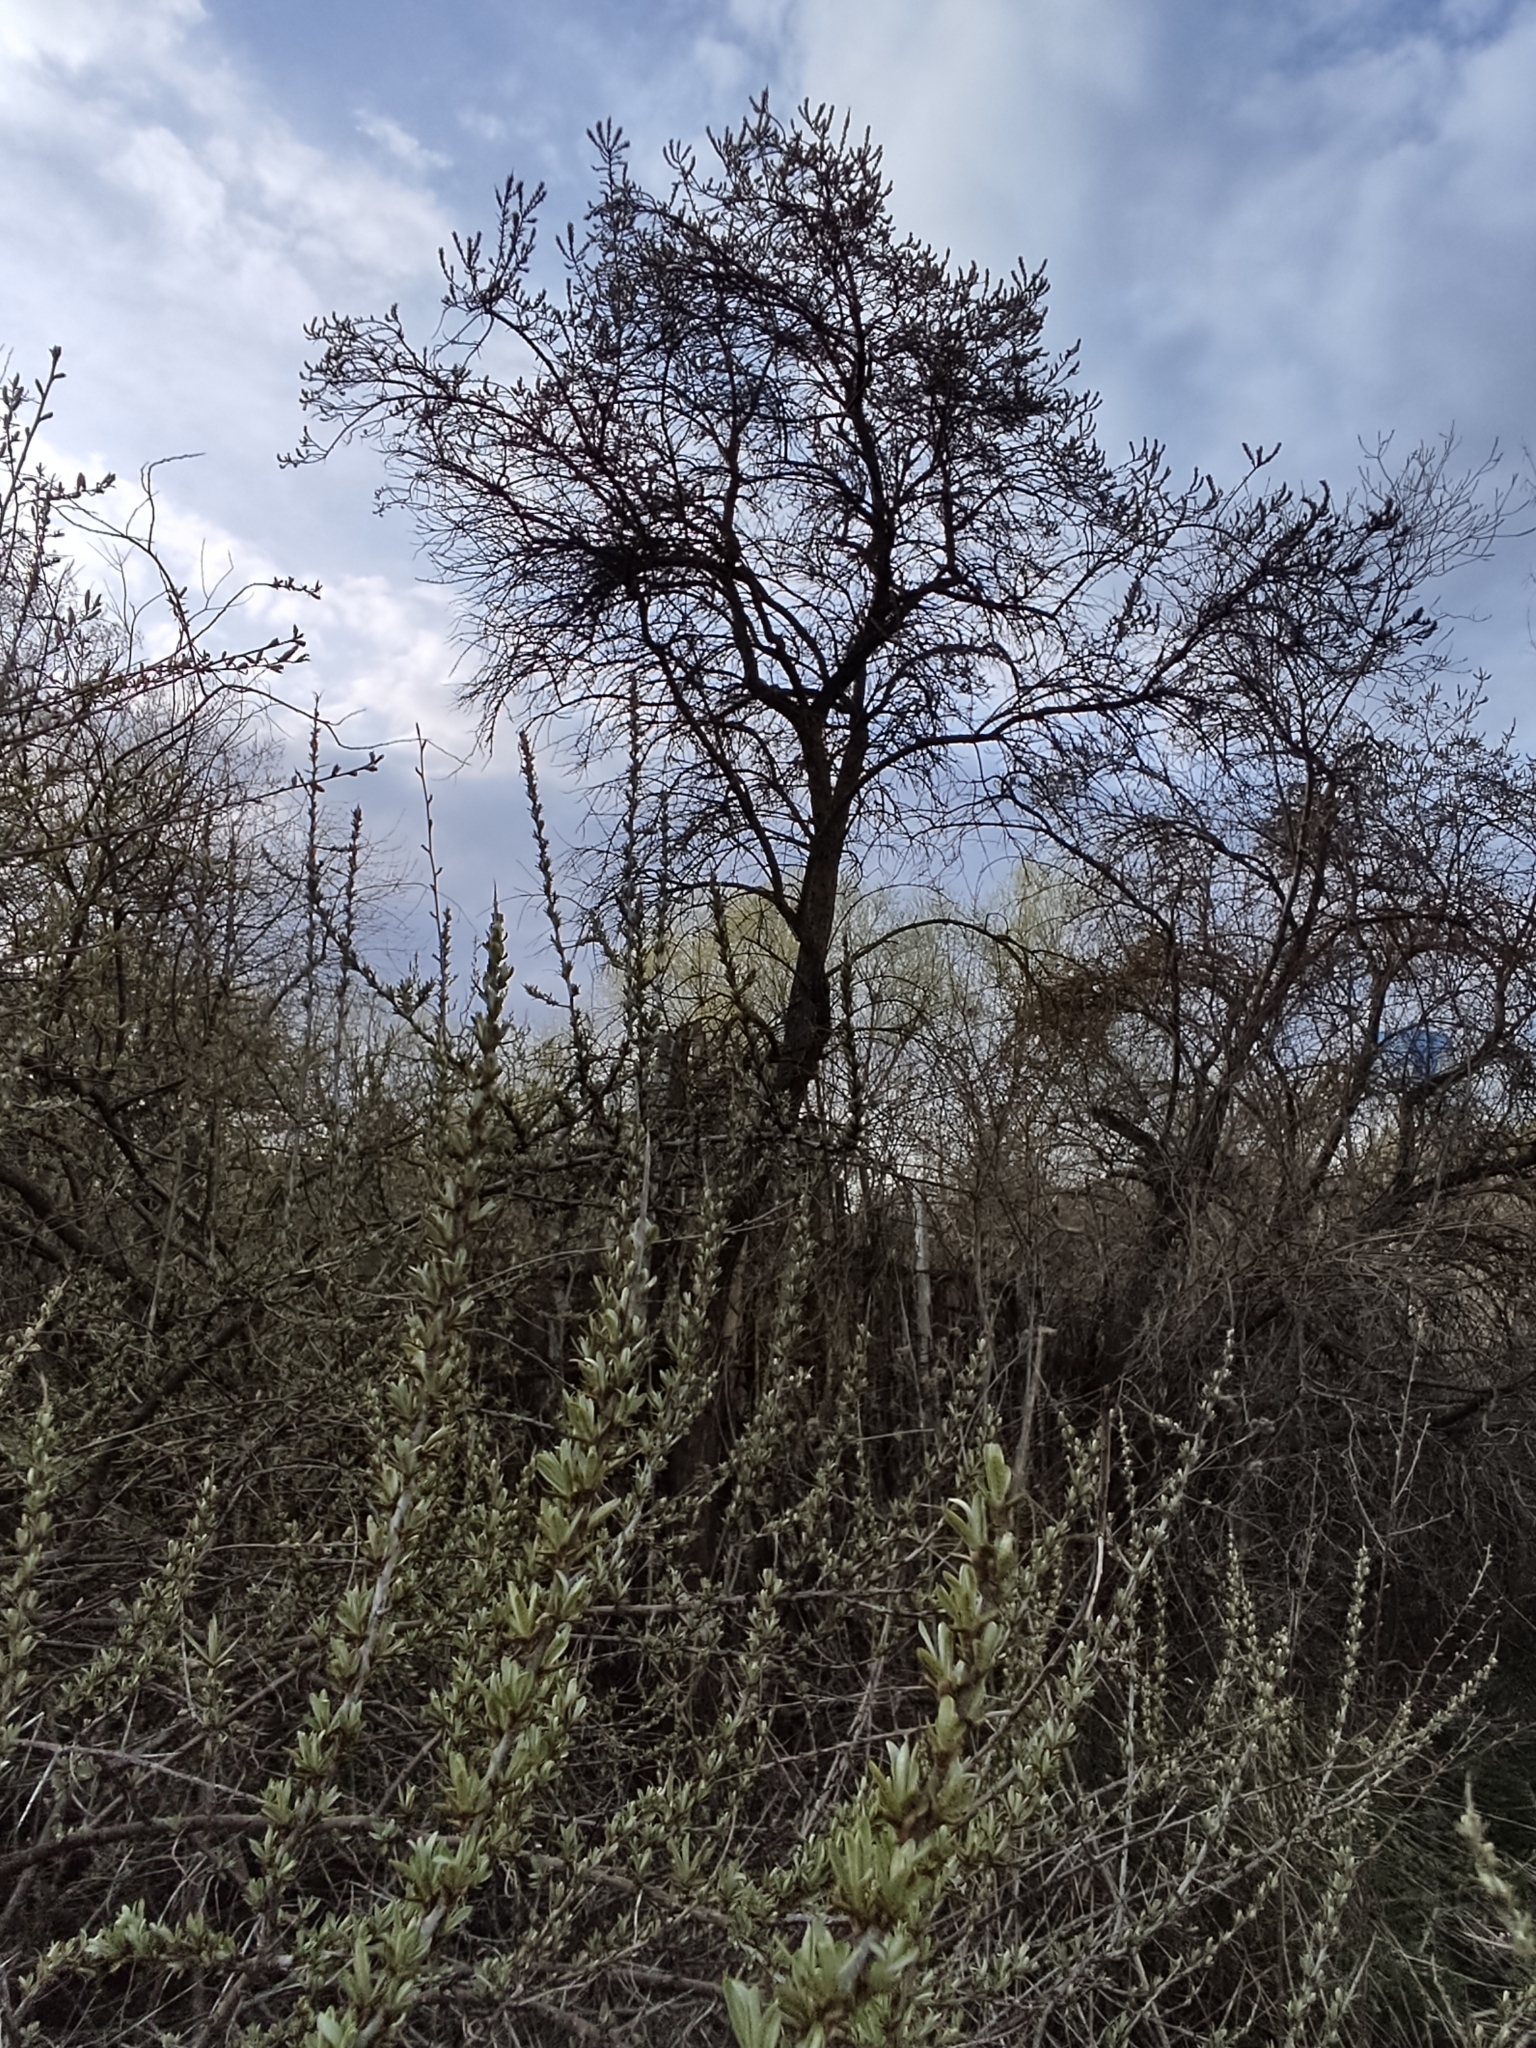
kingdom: Plantae
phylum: Tracheophyta
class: Magnoliopsida
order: Rosales
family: Elaeagnaceae
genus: Hippophae
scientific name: Hippophae rhamnoides
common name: Sea-buckthorn
